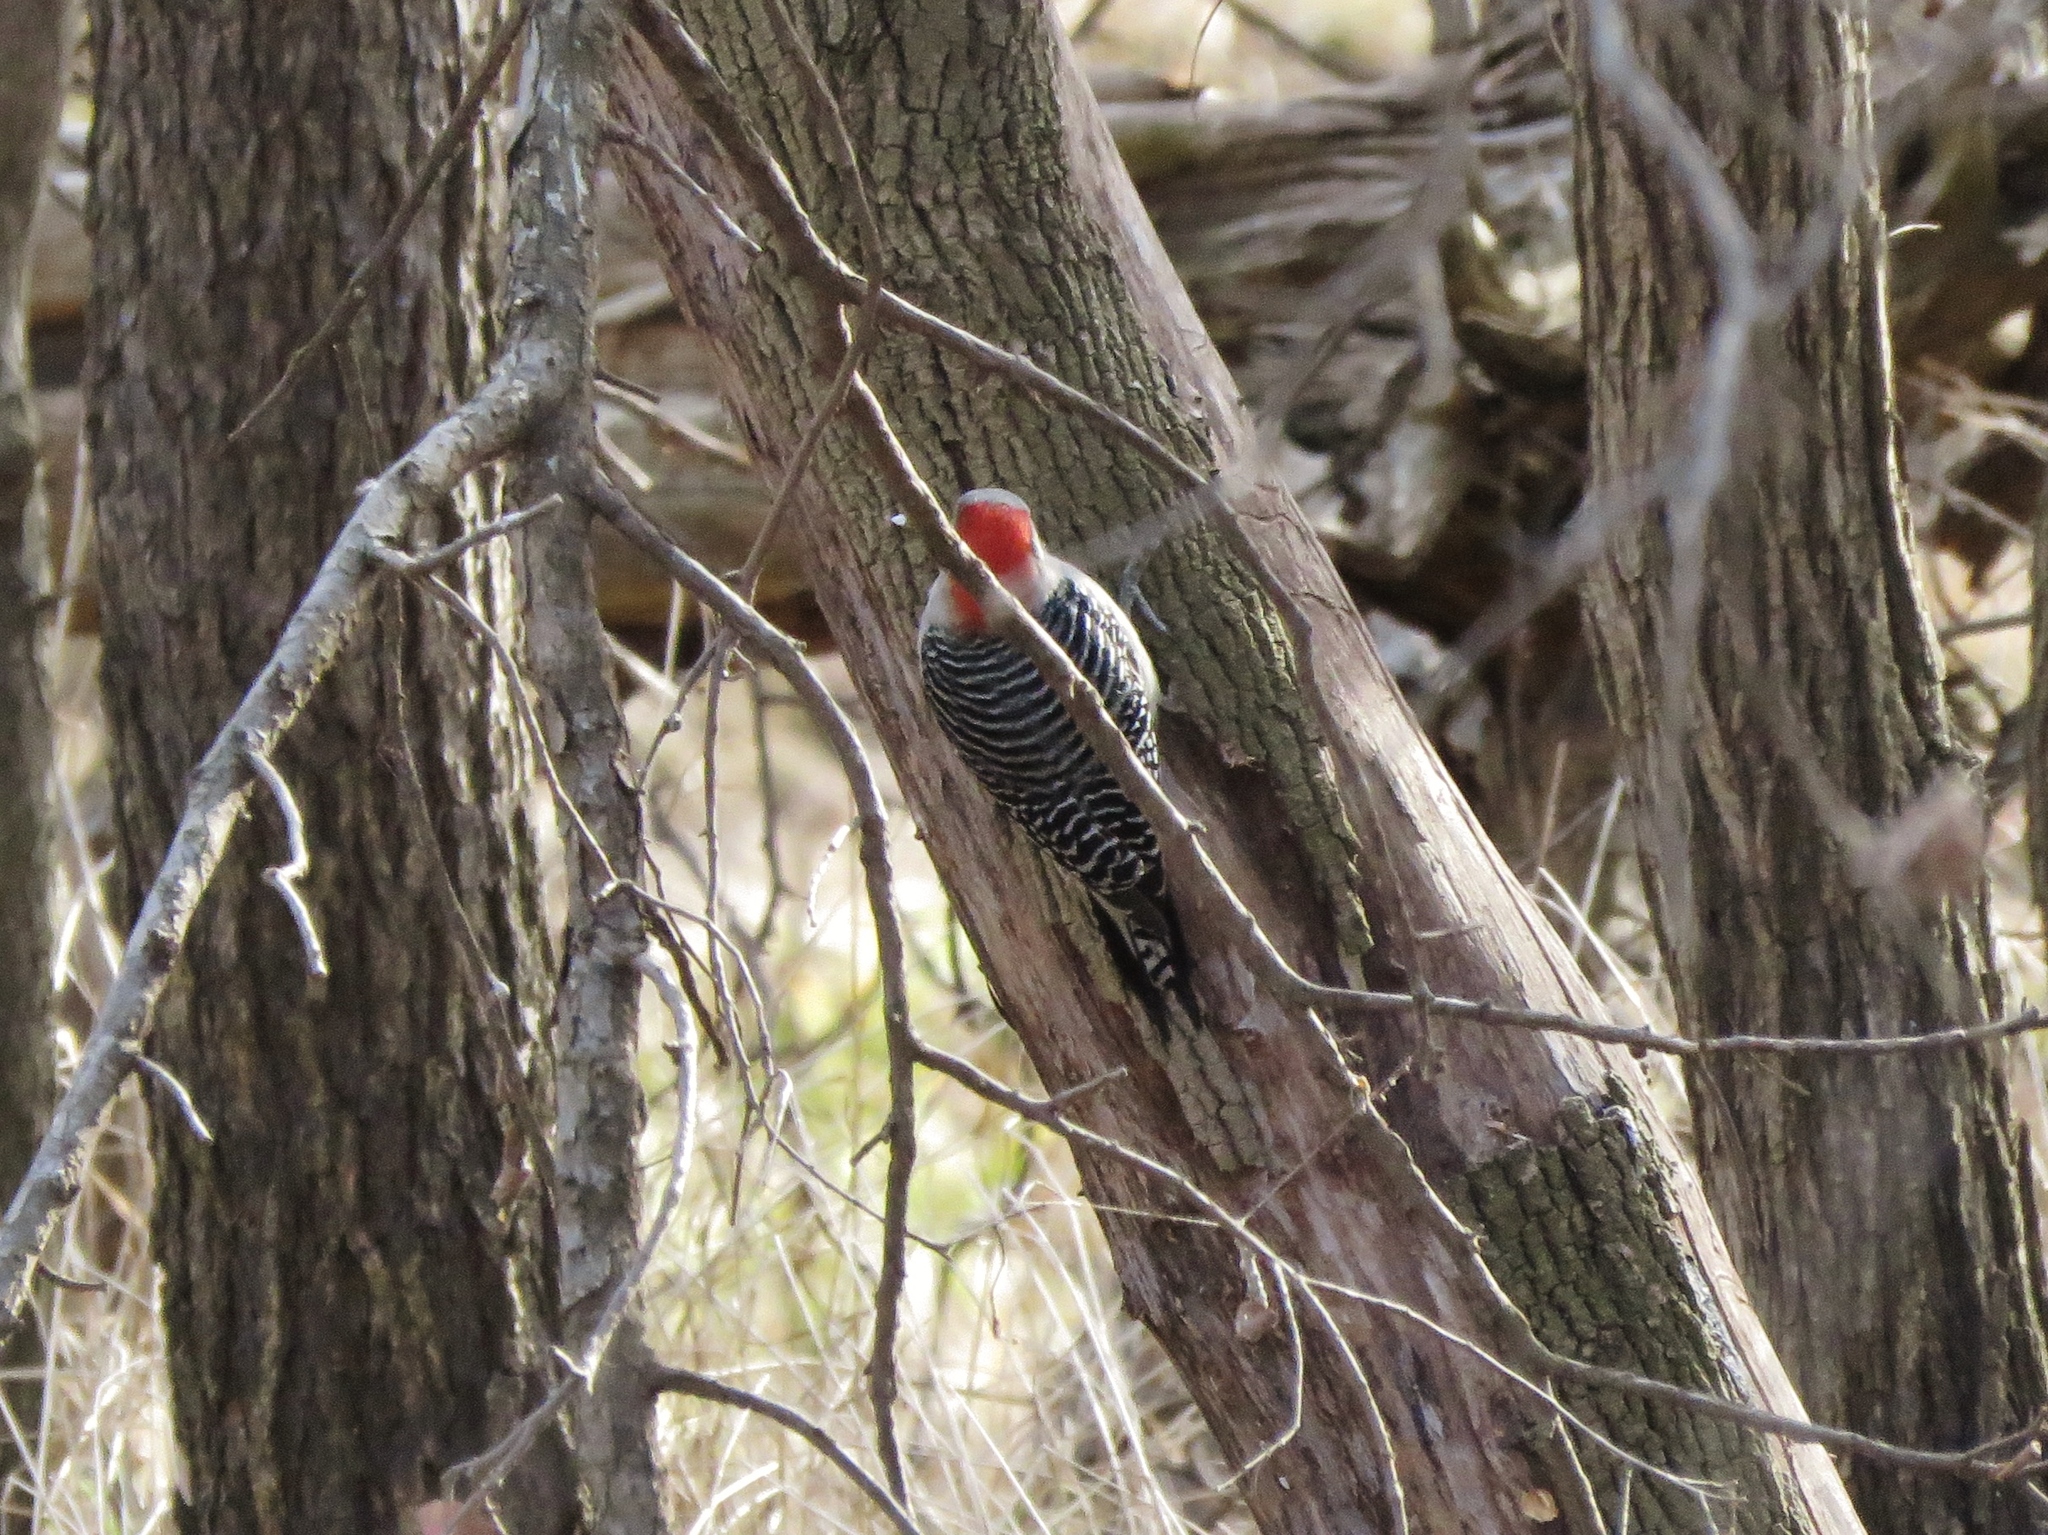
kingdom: Animalia
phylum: Chordata
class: Aves
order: Piciformes
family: Picidae
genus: Melanerpes
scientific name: Melanerpes carolinus
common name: Red-bellied woodpecker
